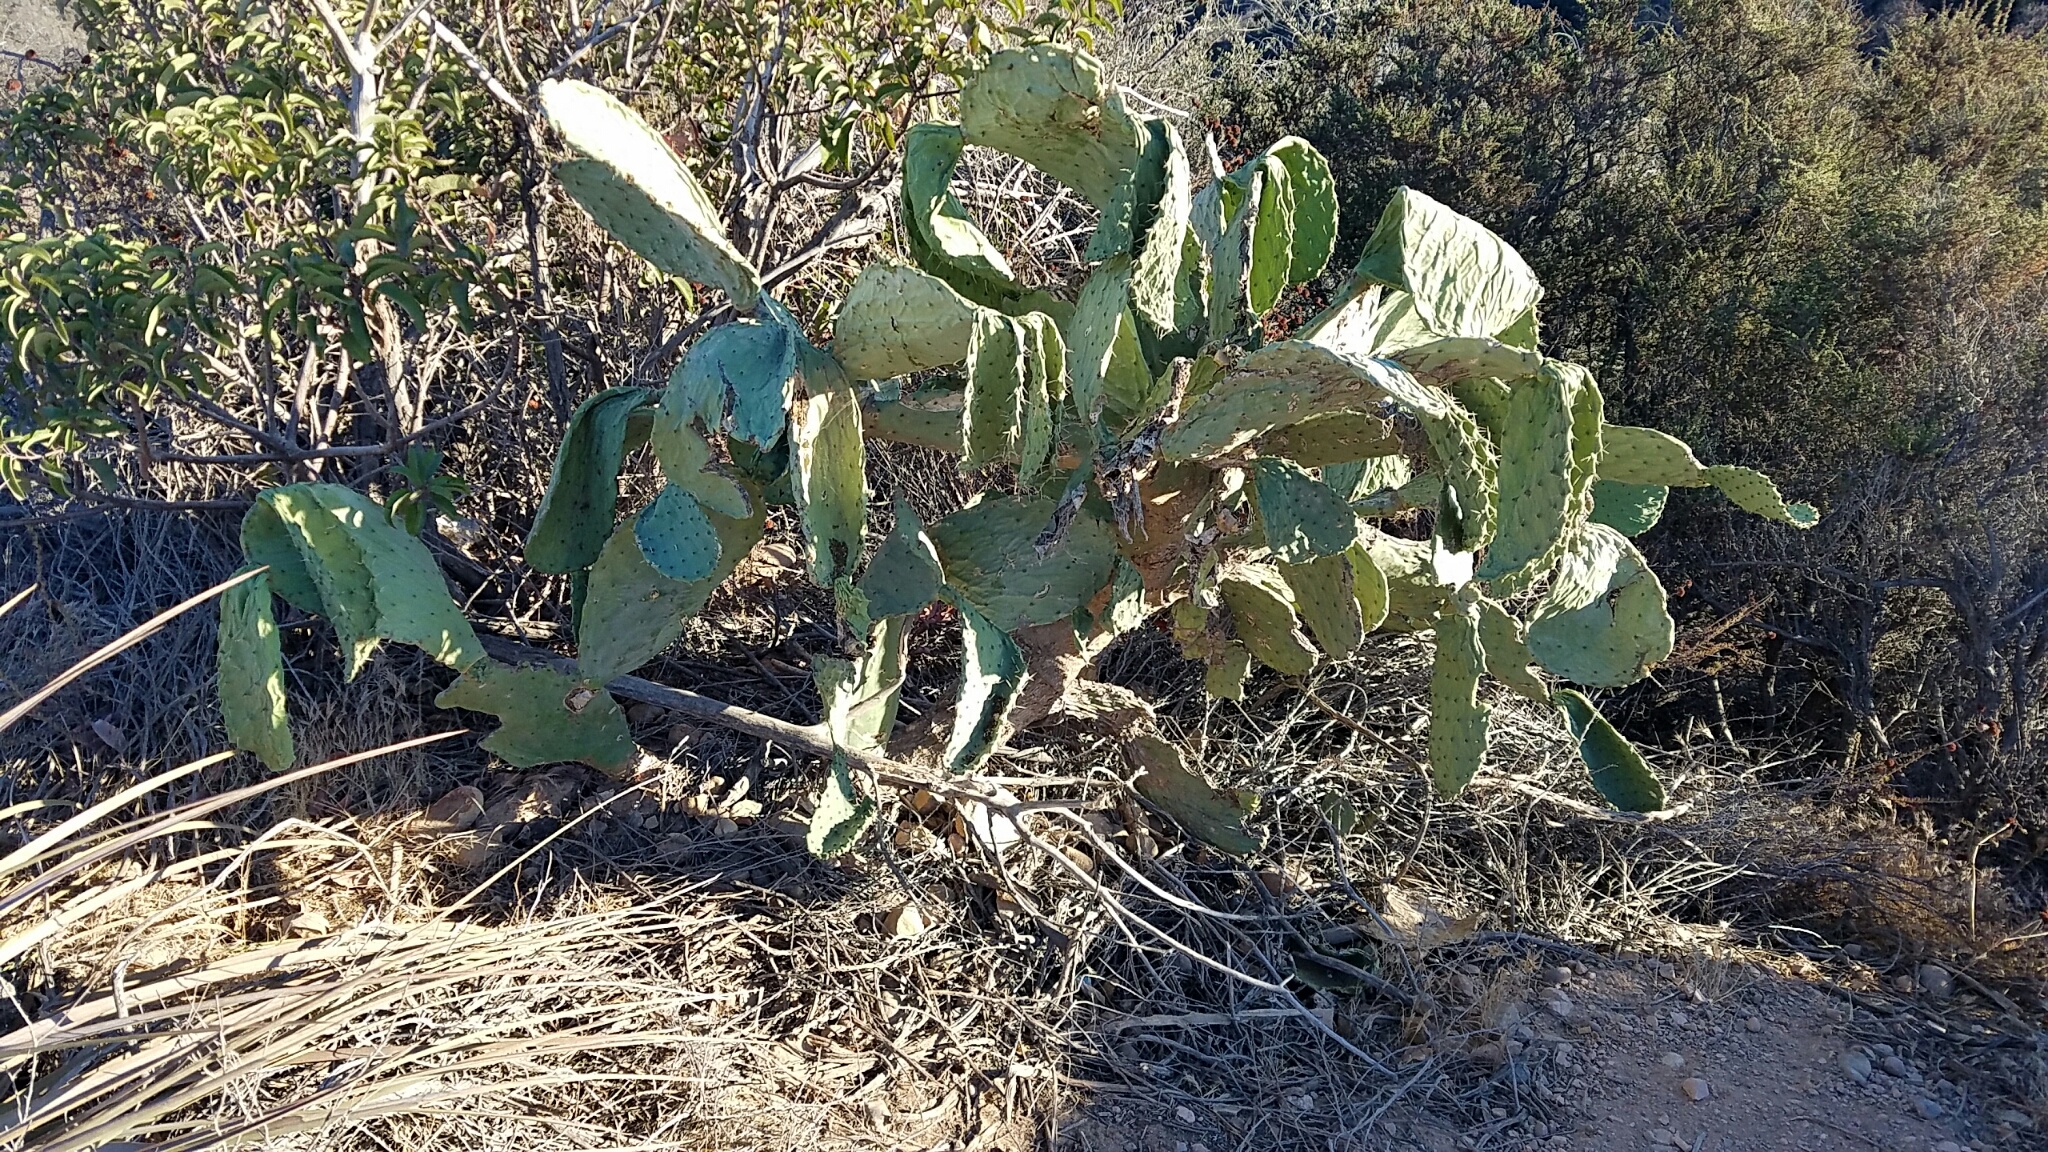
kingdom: Plantae
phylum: Tracheophyta
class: Magnoliopsida
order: Caryophyllales
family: Cactaceae
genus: Opuntia
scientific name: Opuntia ficus-indica
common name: Barbary fig
